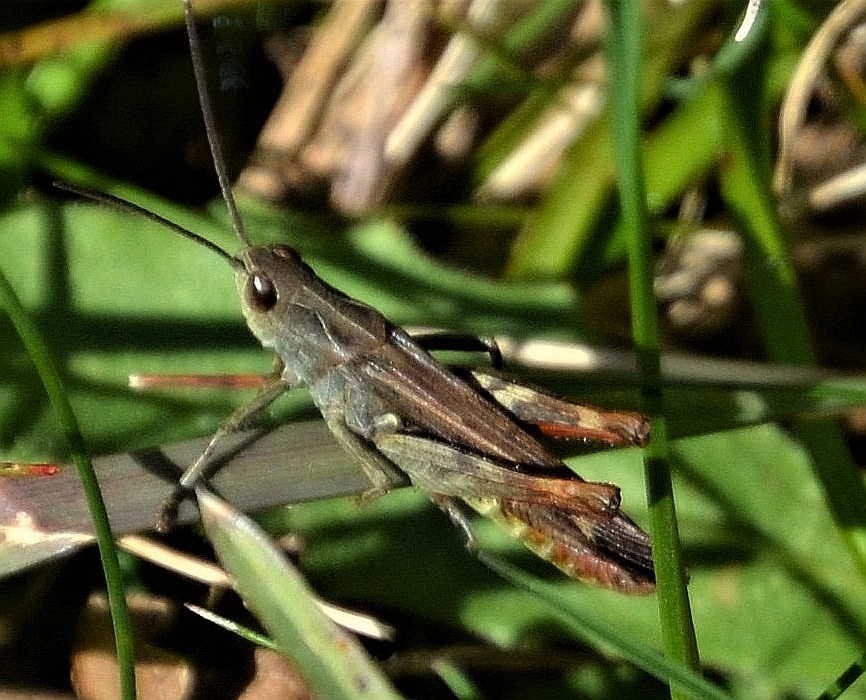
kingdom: Animalia
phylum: Arthropoda
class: Insecta
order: Orthoptera
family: Acrididae
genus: Chorthippus
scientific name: Chorthippus biguttulus
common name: Bow-winged grasshopper
